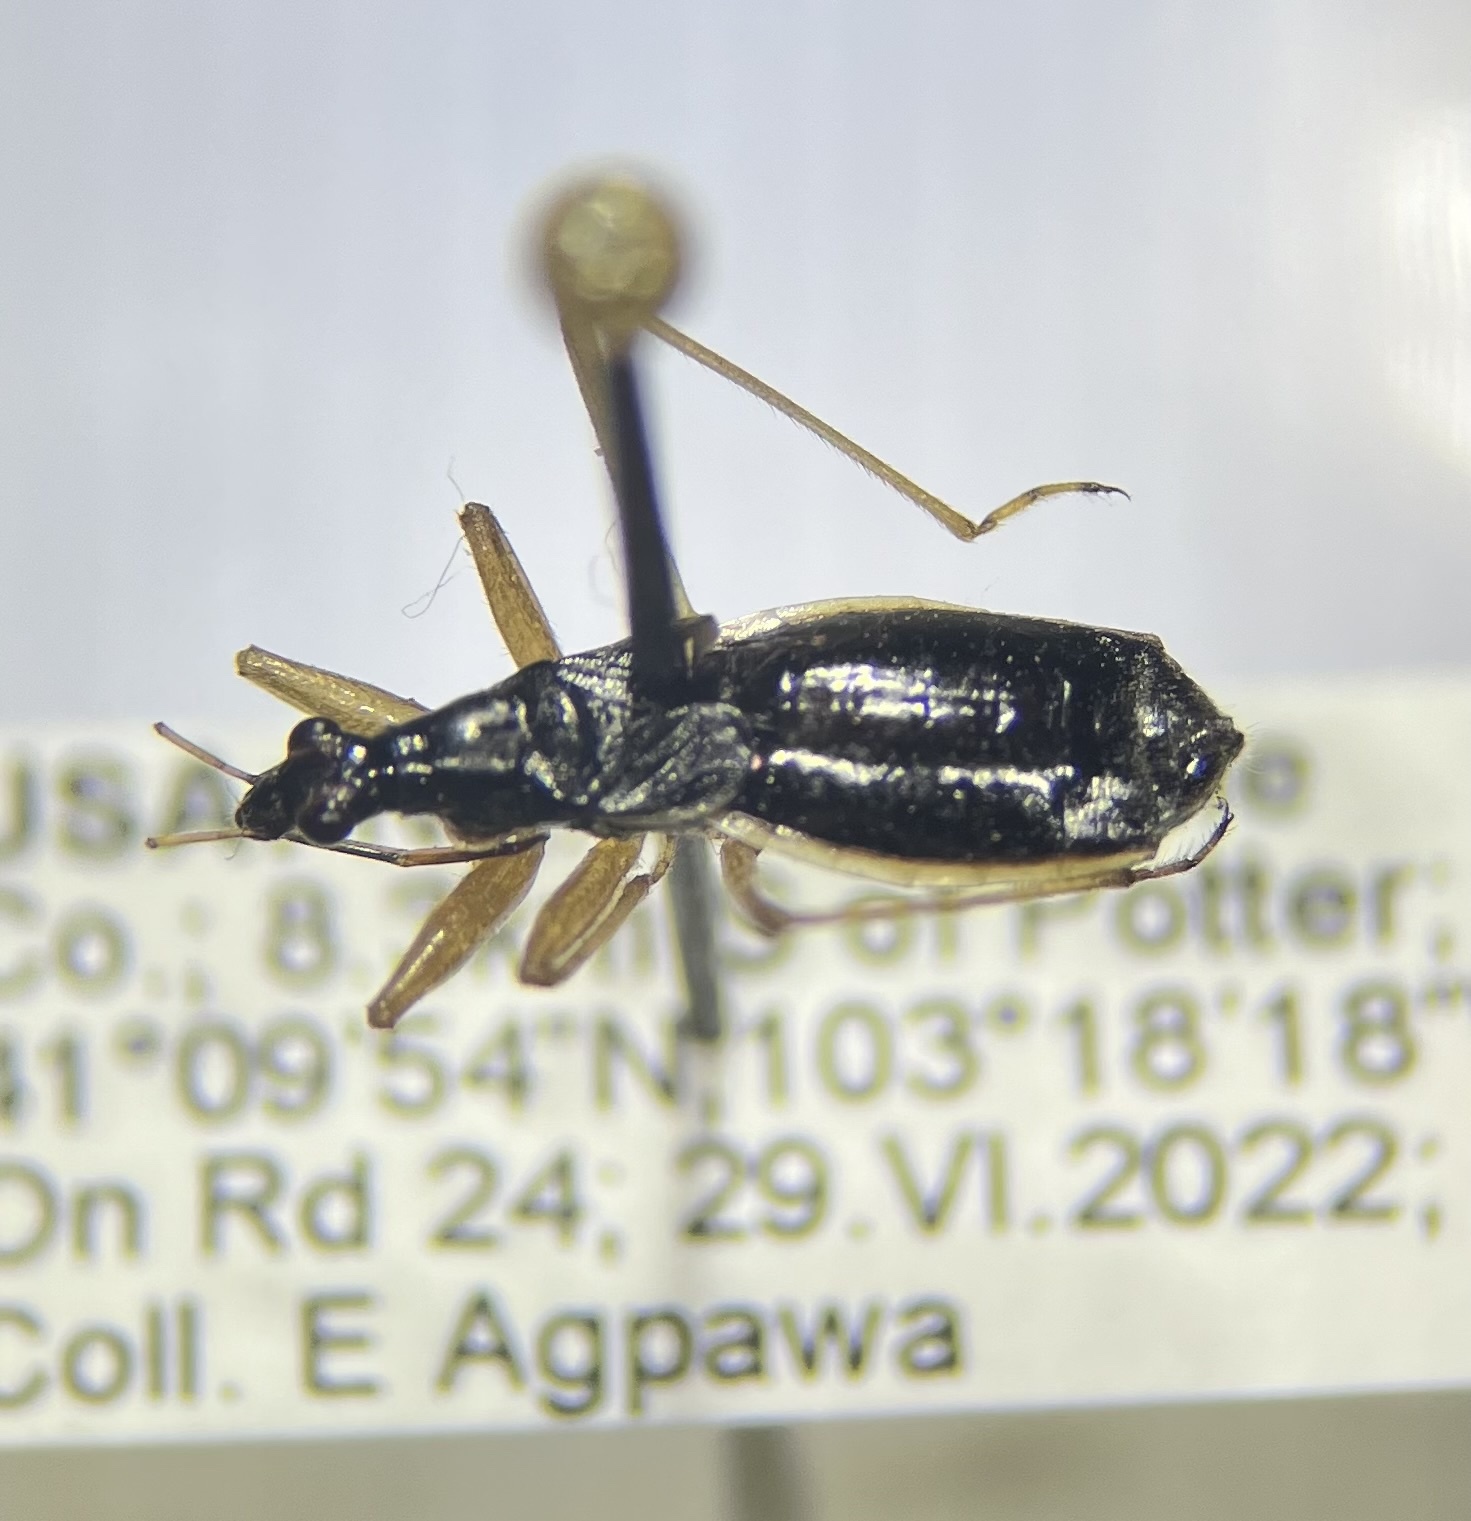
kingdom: Animalia
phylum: Arthropoda
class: Insecta
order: Hemiptera
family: Nabidae
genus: Nabis
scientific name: Nabis
